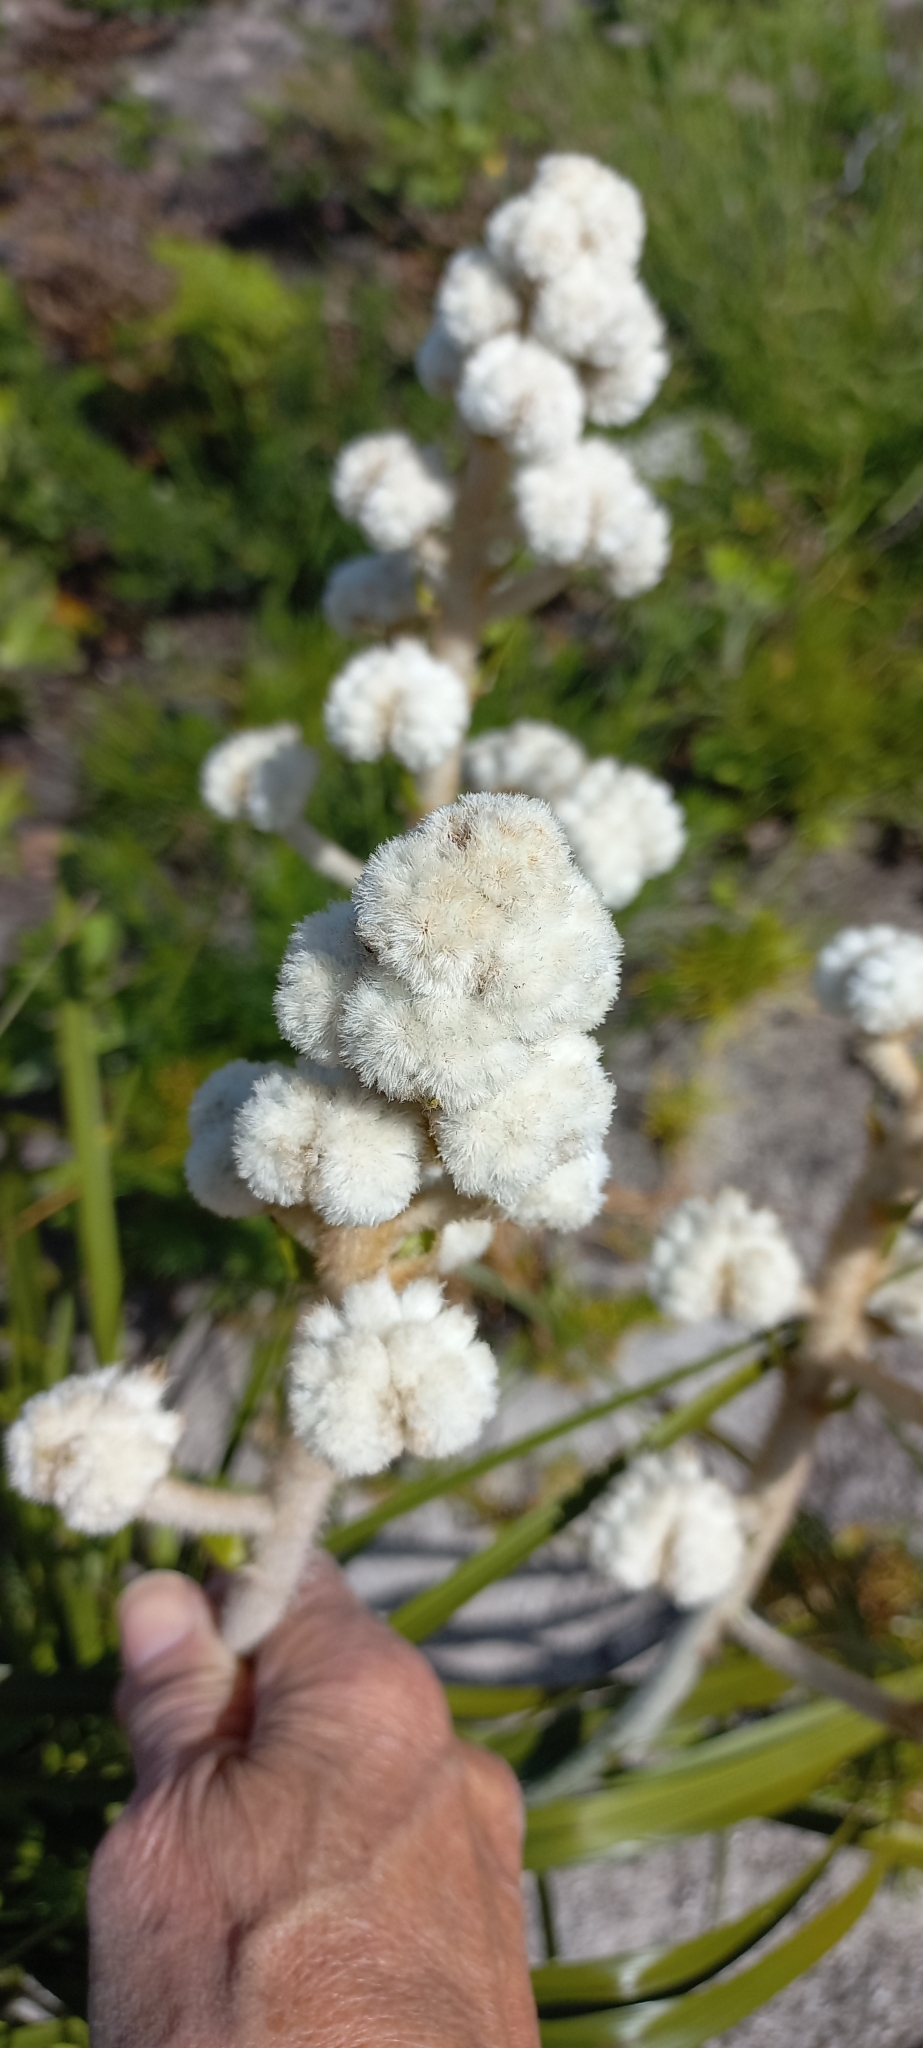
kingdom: Plantae
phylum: Tracheophyta
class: Liliopsida
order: Asparagales
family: Lanariaceae
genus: Lanaria
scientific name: Lanaria lanata
